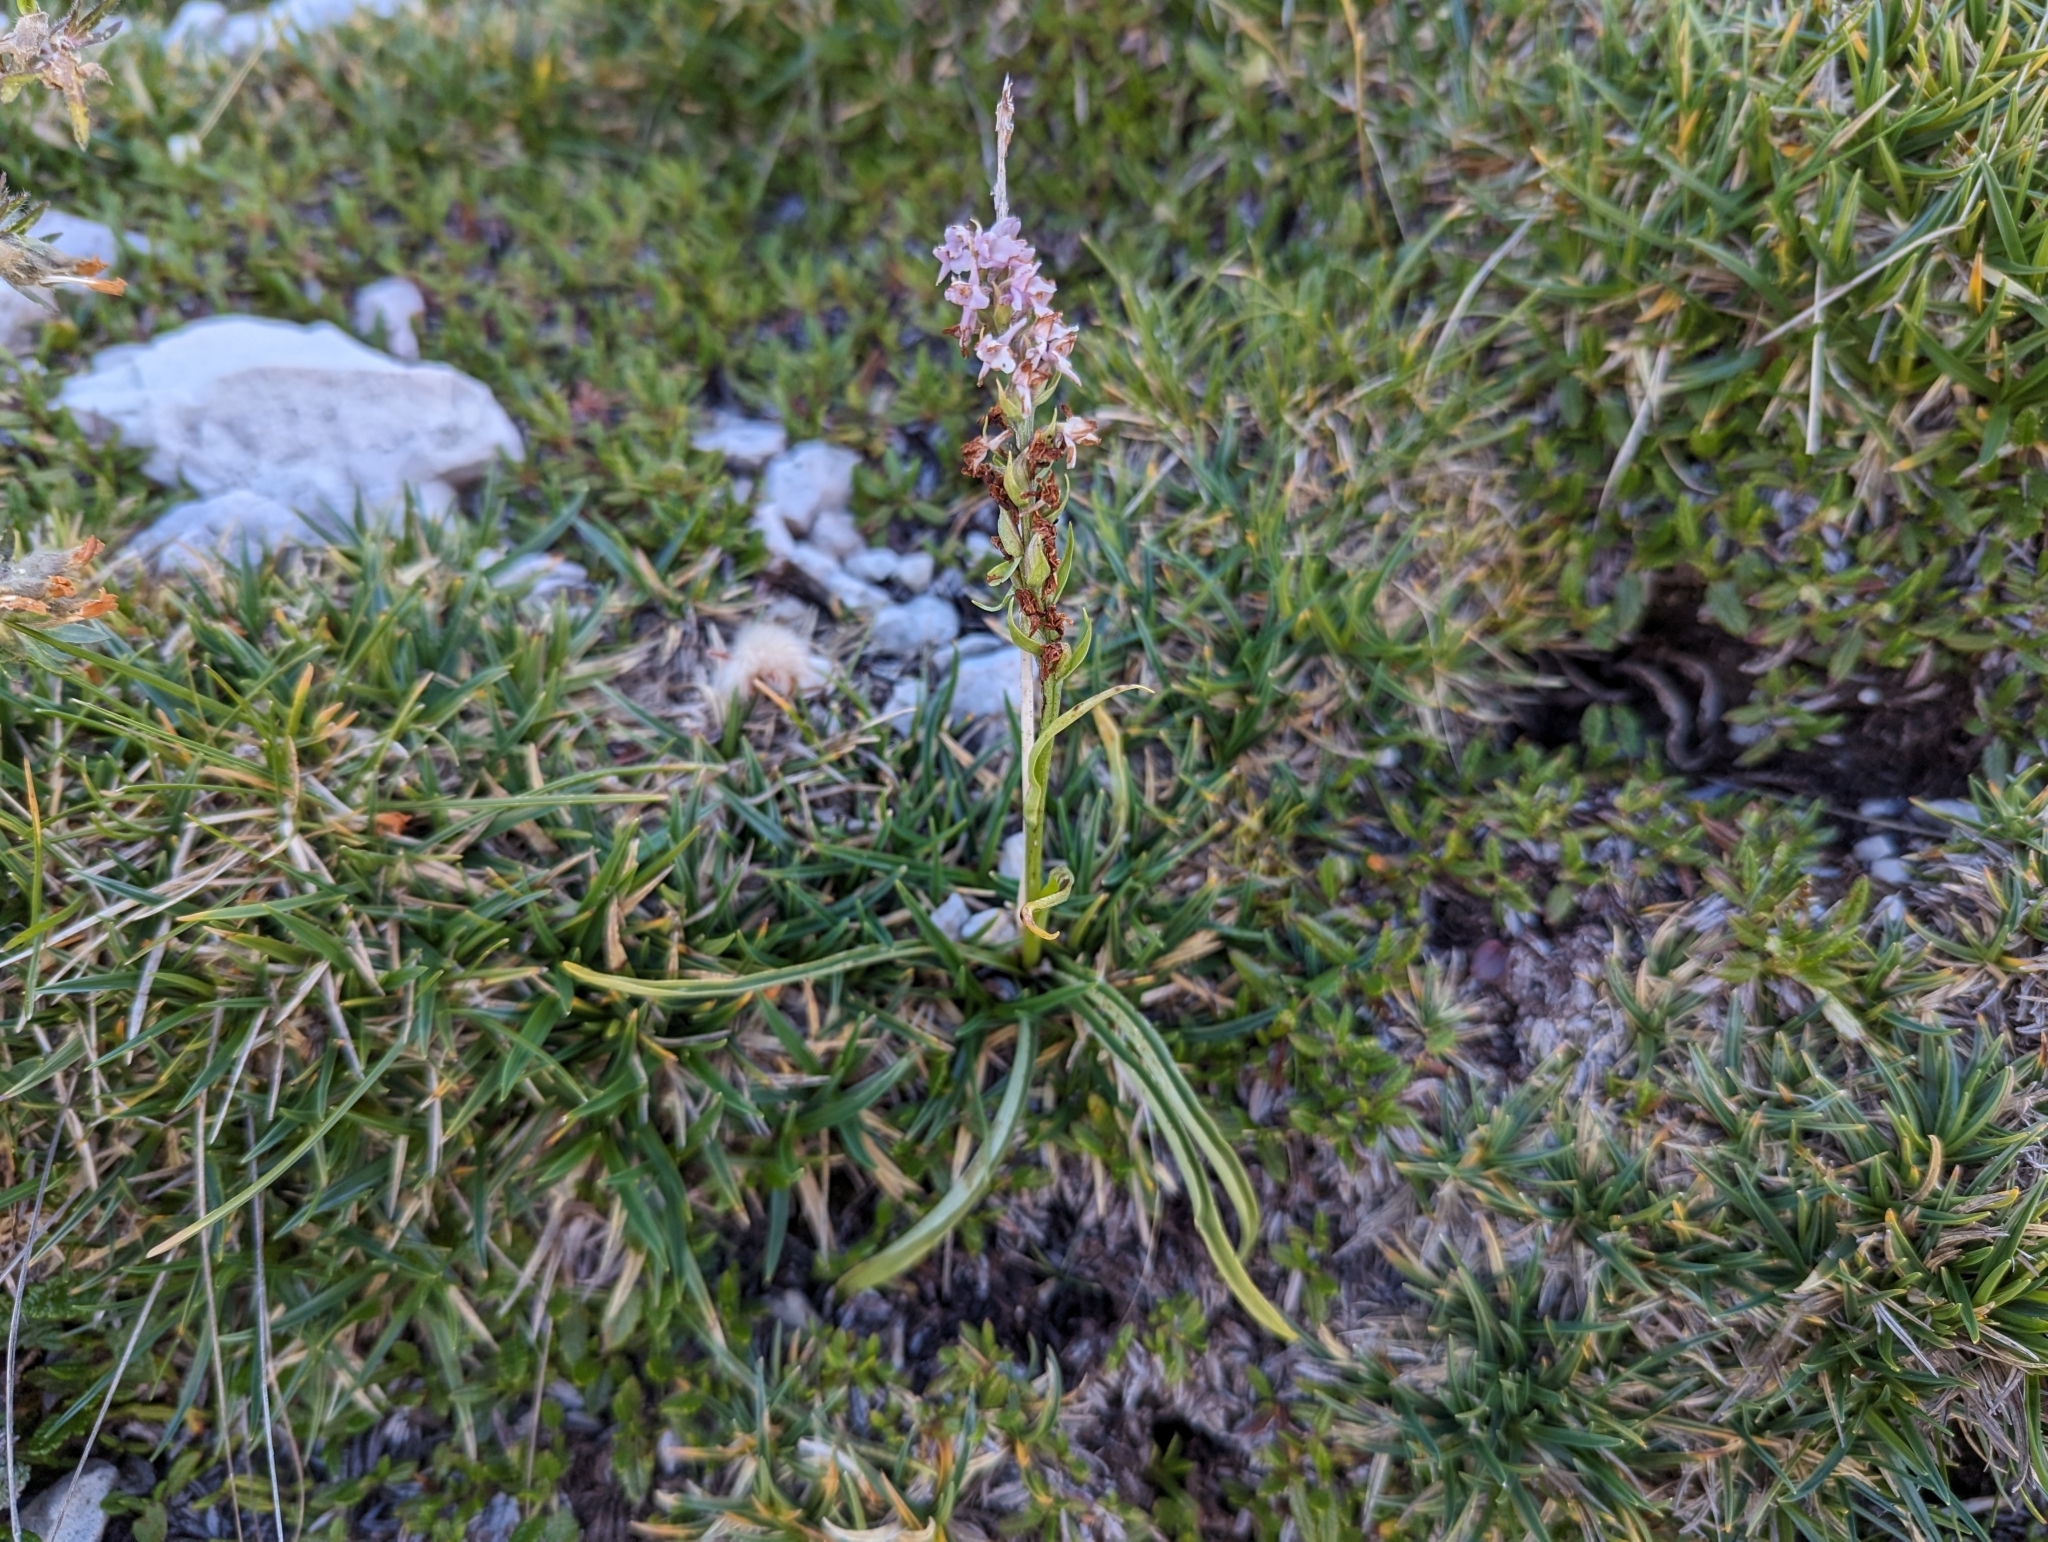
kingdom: Plantae
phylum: Tracheophyta
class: Liliopsida
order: Asparagales
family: Orchidaceae
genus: Gymnadenia
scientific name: Gymnadenia odoratissima
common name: Scented gymnadenia
